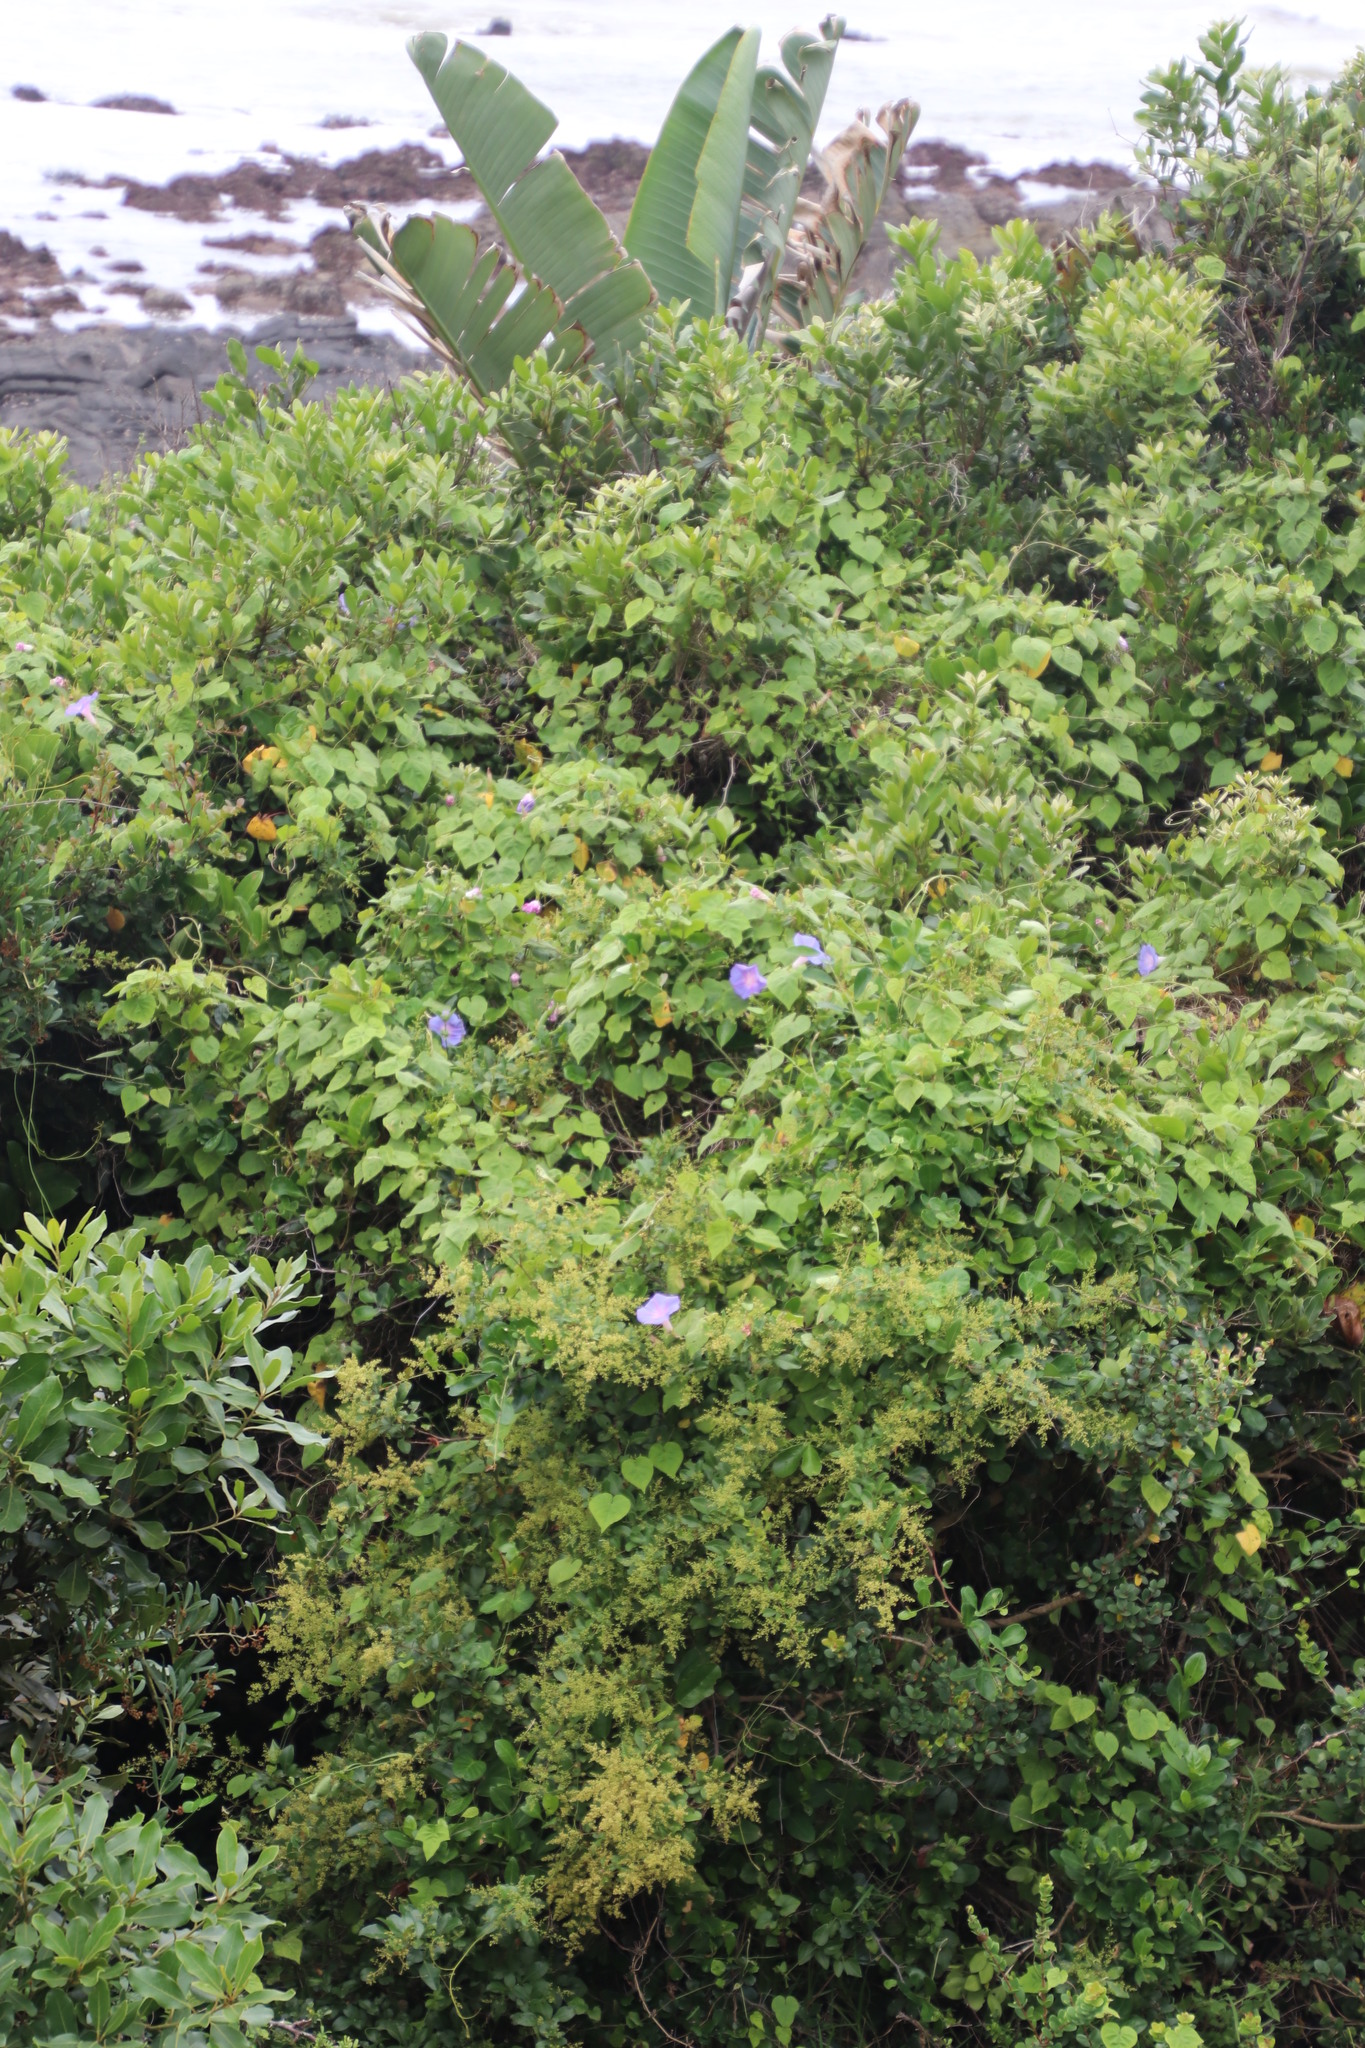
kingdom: Plantae
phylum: Tracheophyta
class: Magnoliopsida
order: Solanales
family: Convolvulaceae
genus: Ipomoea
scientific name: Ipomoea indica
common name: Blue dawnflower
